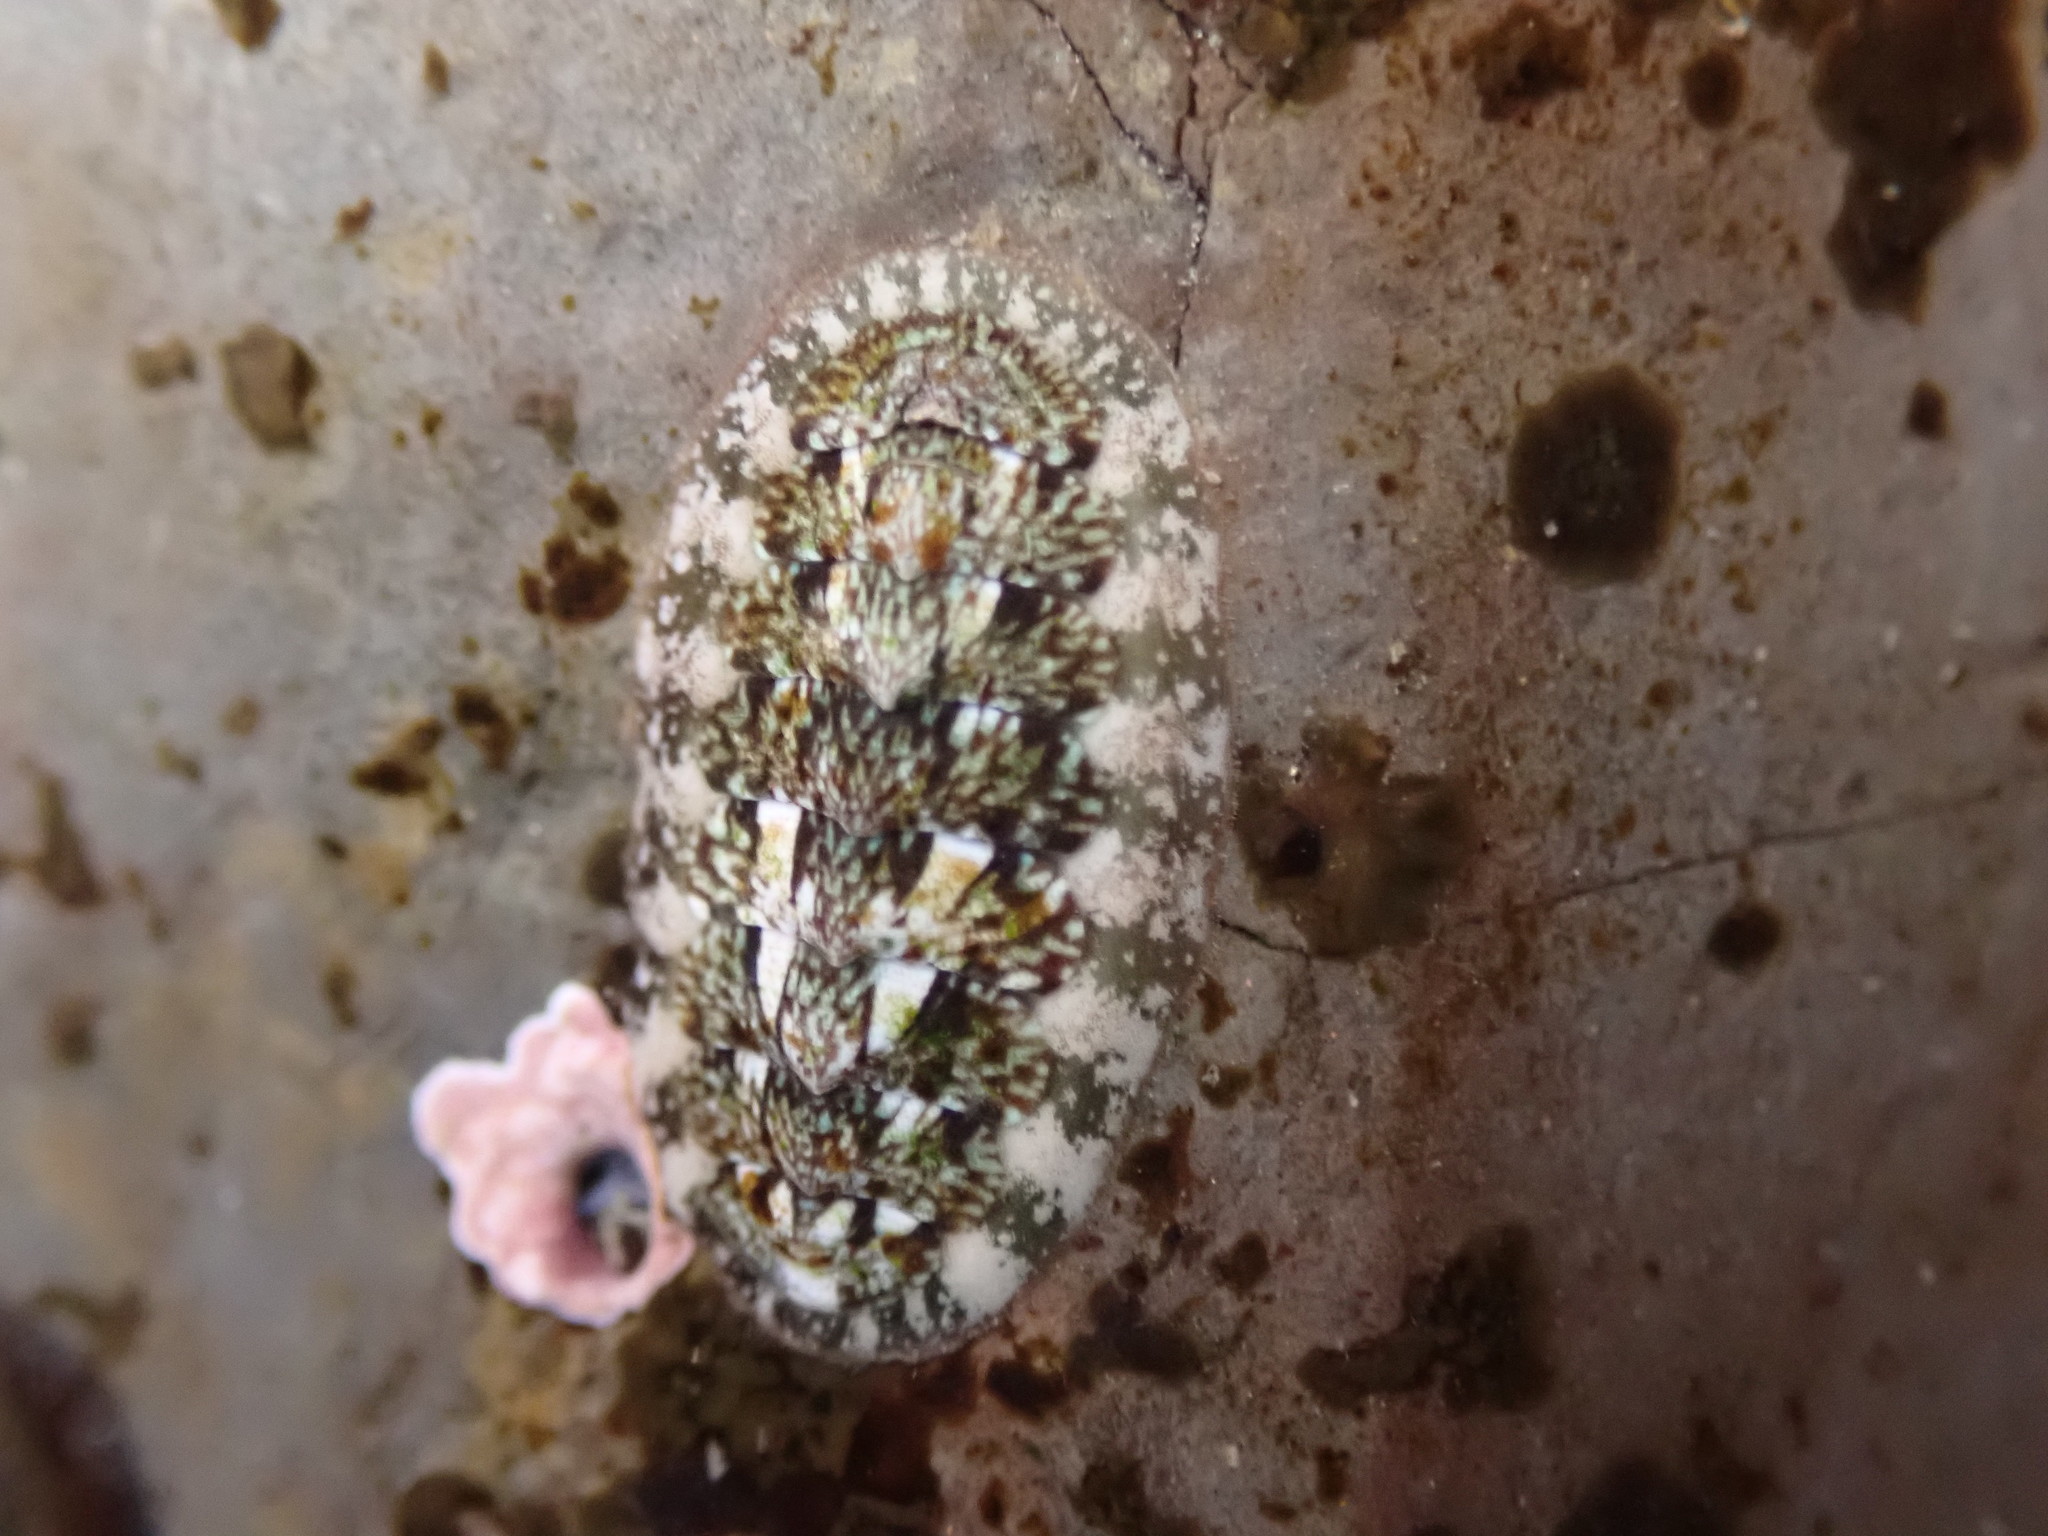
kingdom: Animalia
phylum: Mollusca
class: Polyplacophora
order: Chitonida
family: Tonicellidae
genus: Cyanoplax
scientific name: Cyanoplax dentiens
